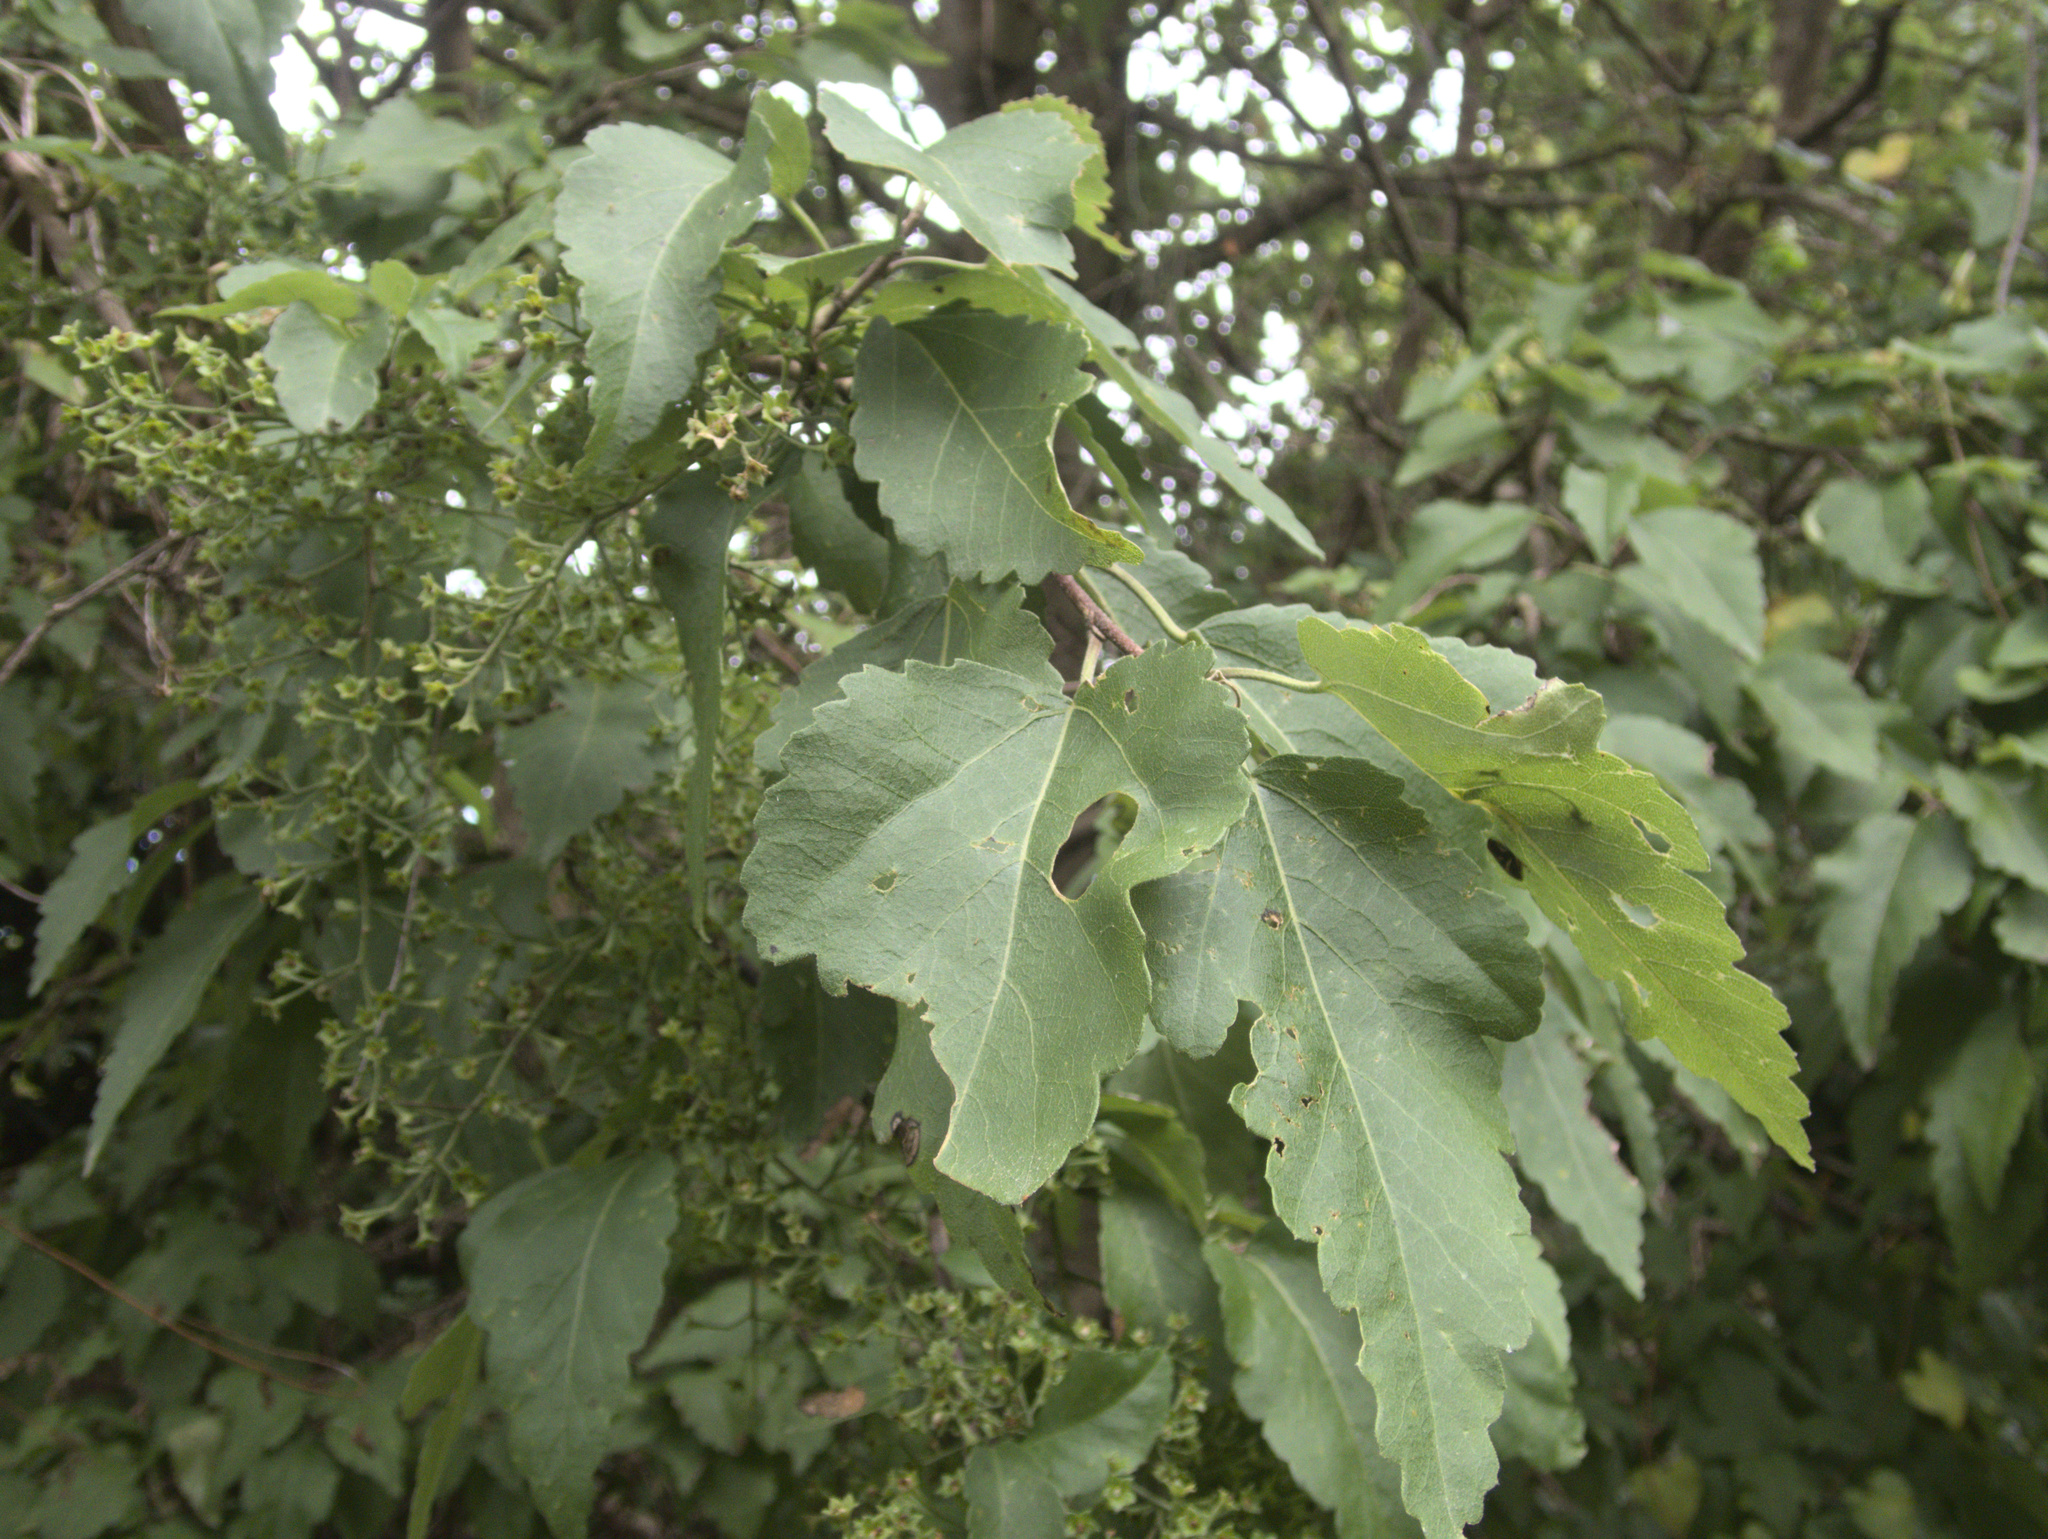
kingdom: Plantae
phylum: Tracheophyta
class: Magnoliopsida
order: Malvales
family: Malvaceae
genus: Plagianthus
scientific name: Plagianthus regius
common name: Manatu
